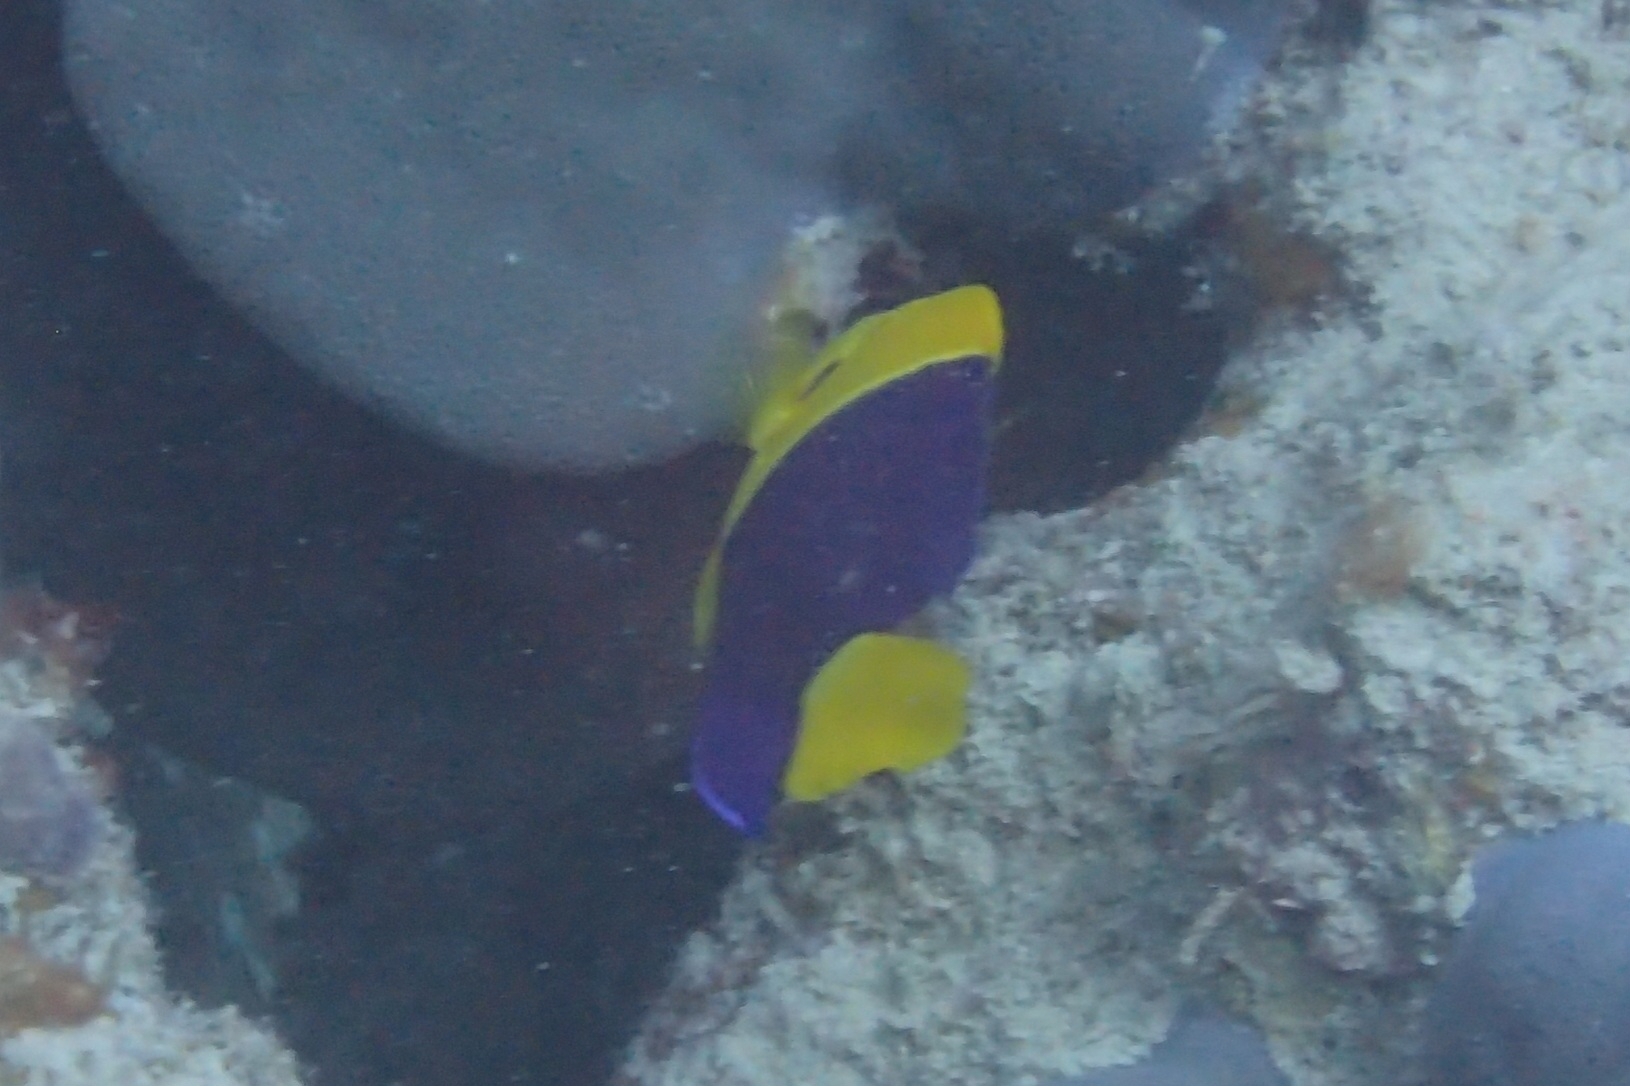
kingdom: Animalia
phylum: Chordata
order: Perciformes
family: Pomacanthidae
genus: Centropyge
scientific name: Centropyge bicolor
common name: Bicolor angelfish
